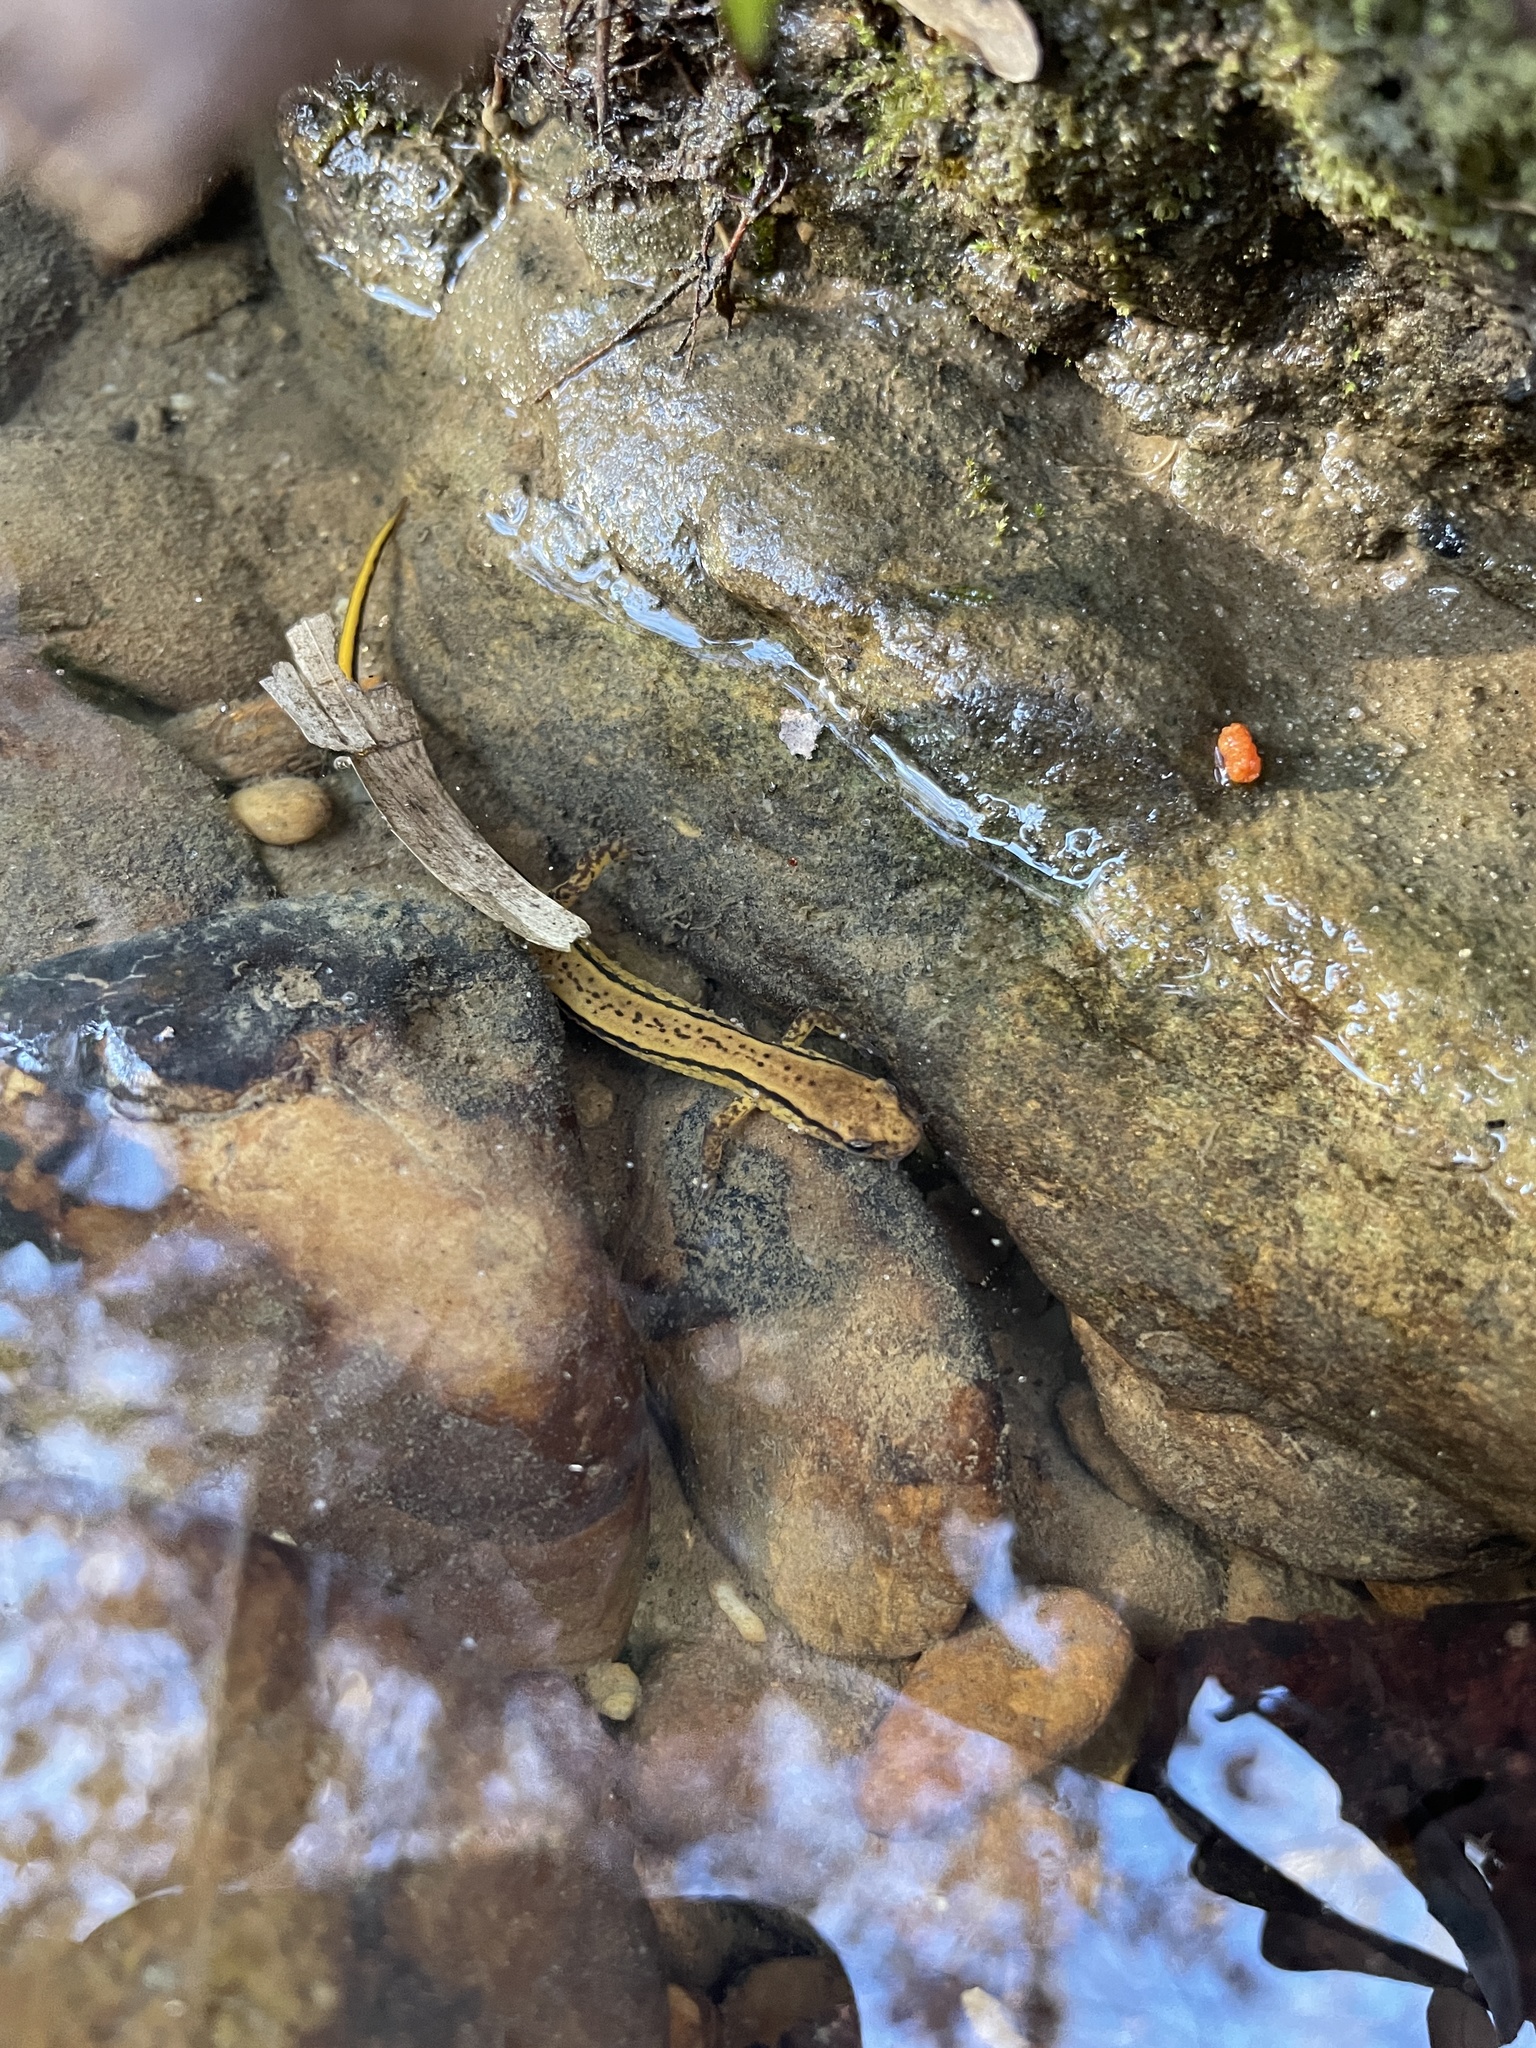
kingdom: Animalia
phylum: Chordata
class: Amphibia
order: Caudata
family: Plethodontidae
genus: Eurycea
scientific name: Eurycea cirrigera
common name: Southern two-lined salamander
